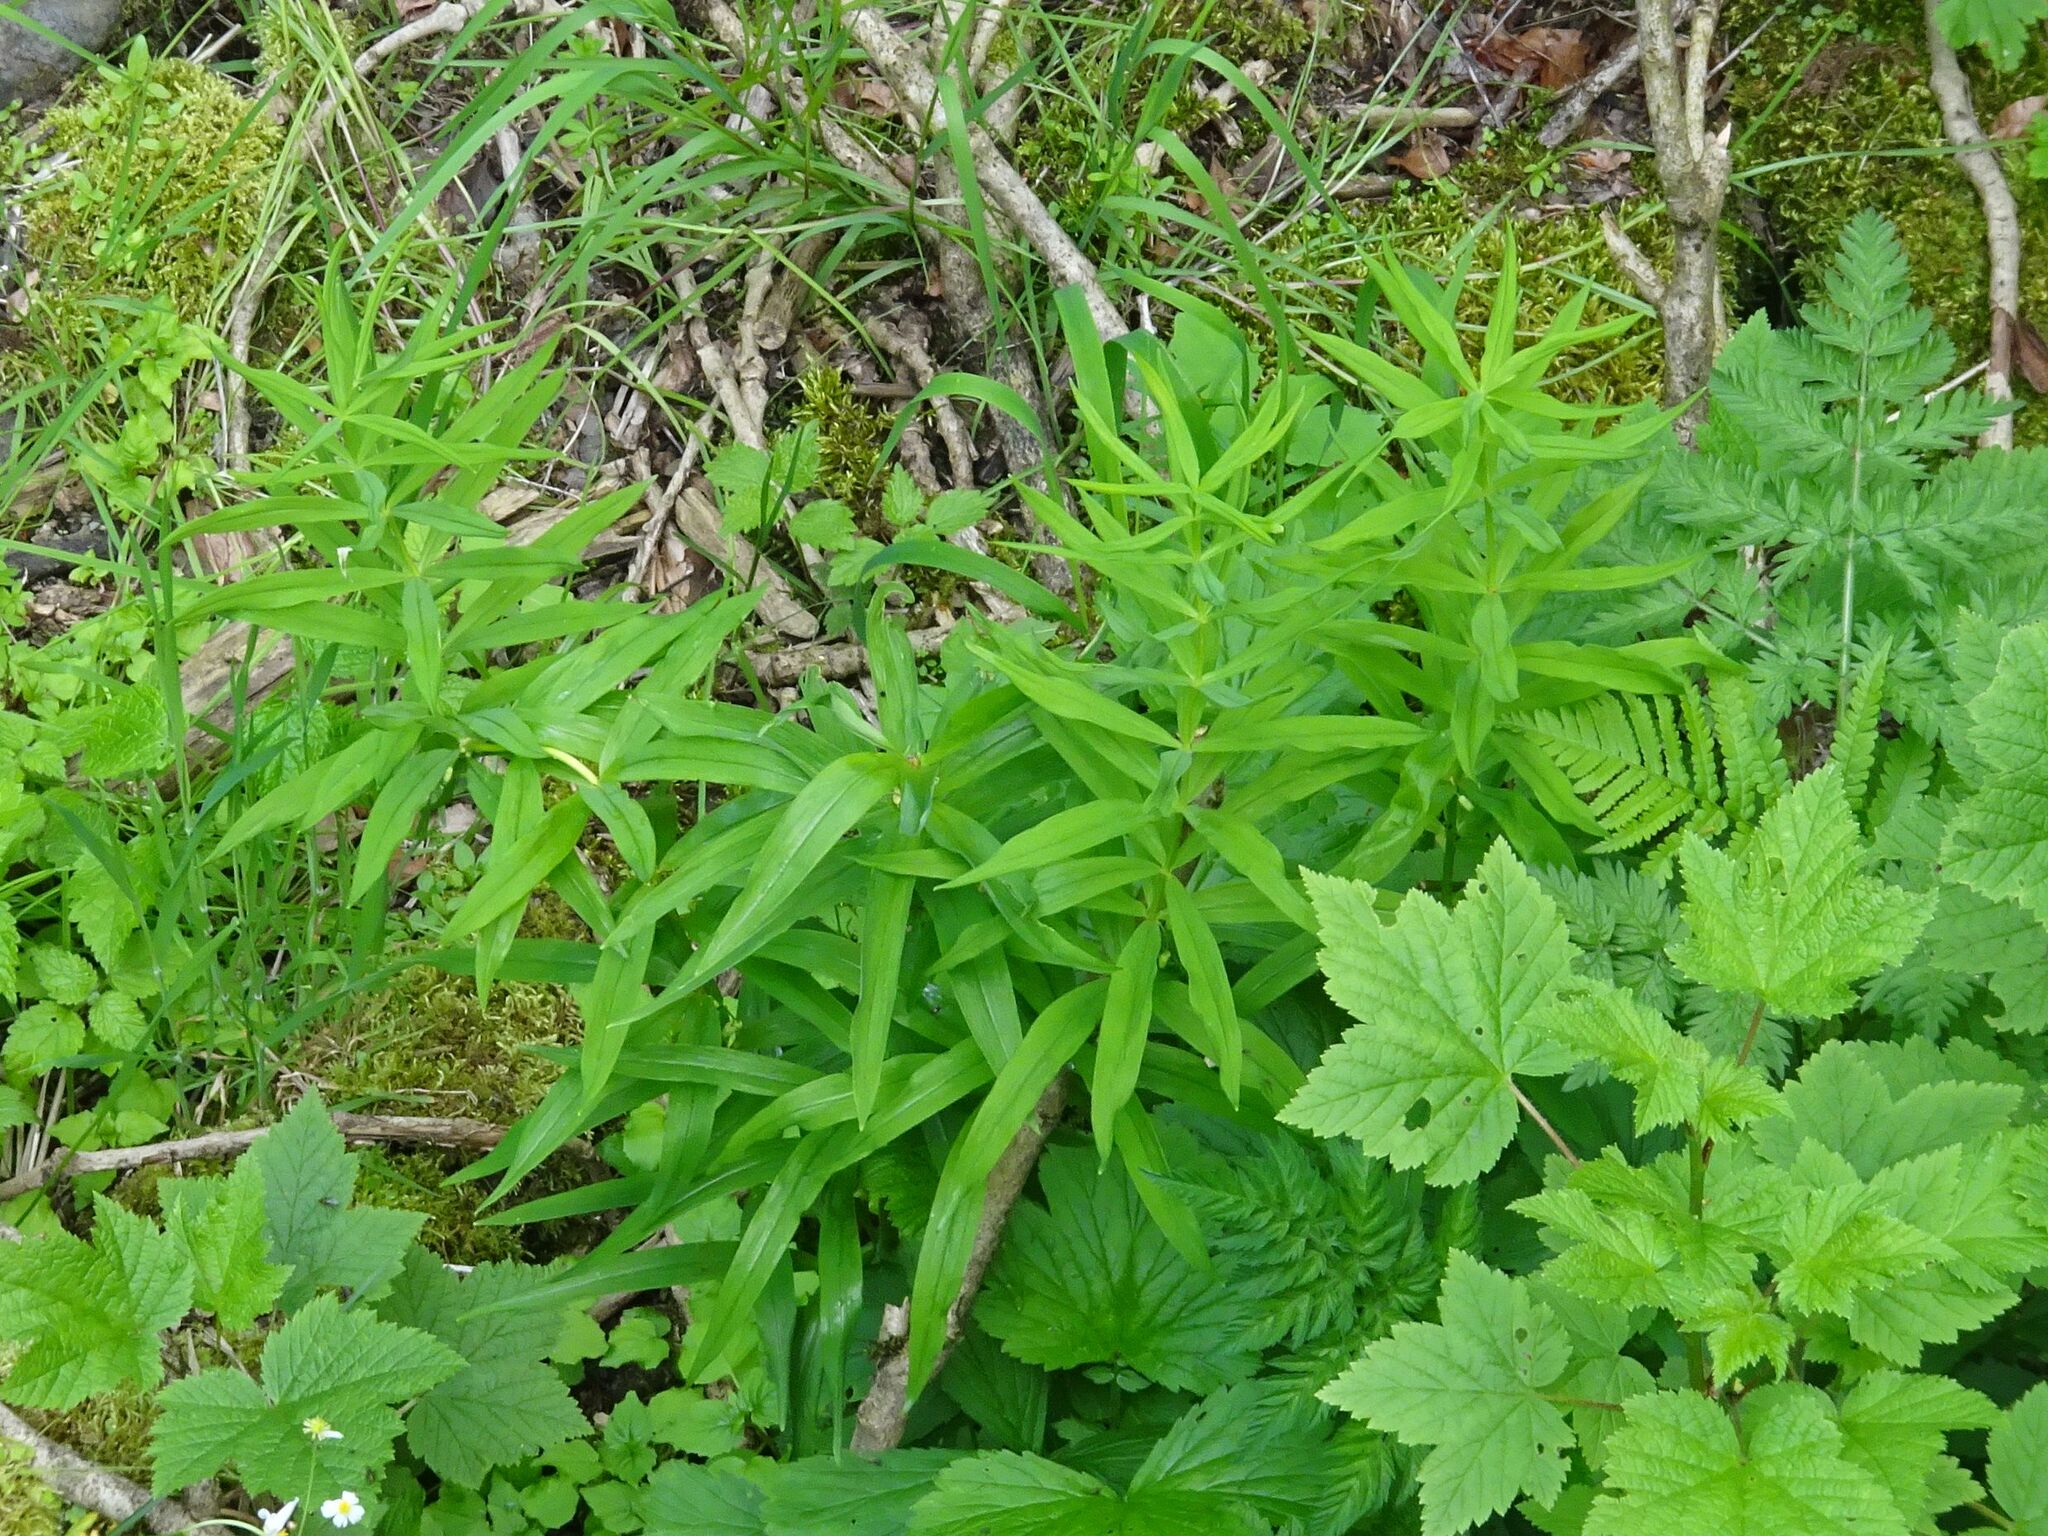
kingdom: Plantae
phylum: Tracheophyta
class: Liliopsida
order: Asparagales
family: Asparagaceae
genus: Polygonatum
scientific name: Polygonatum verticillatum
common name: Whorled solomon's-seal
